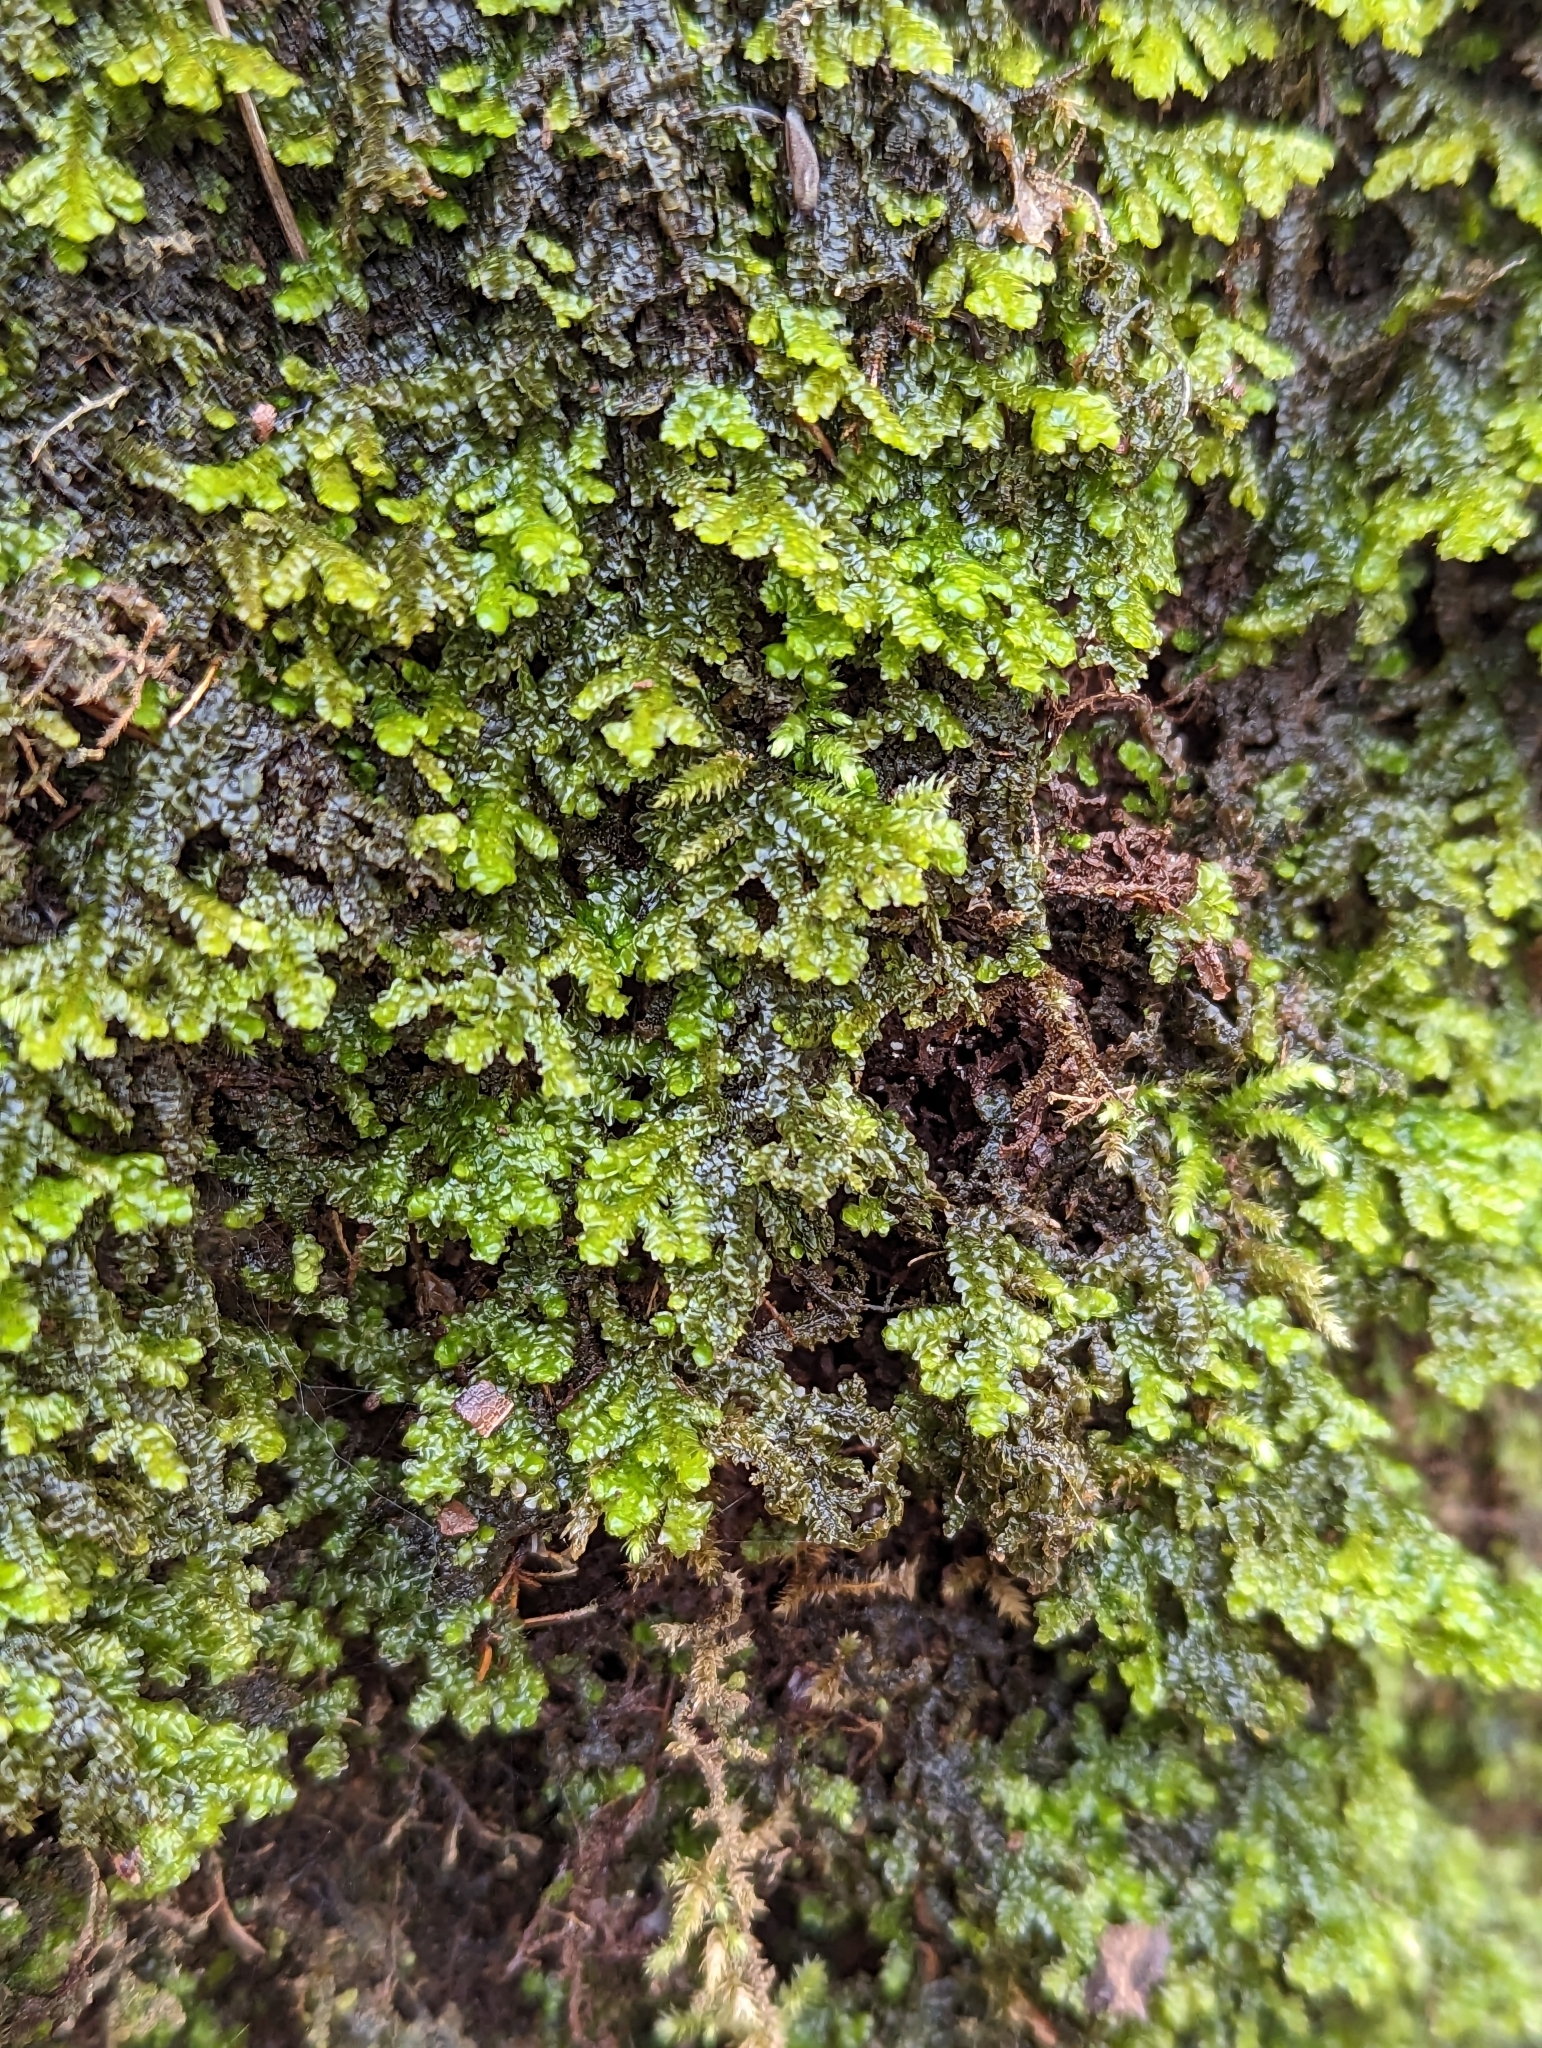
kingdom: Plantae
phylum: Marchantiophyta
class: Jungermanniopsida
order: Porellales
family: Porellaceae
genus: Porella
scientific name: Porella platyphylla
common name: Wall scalewort
